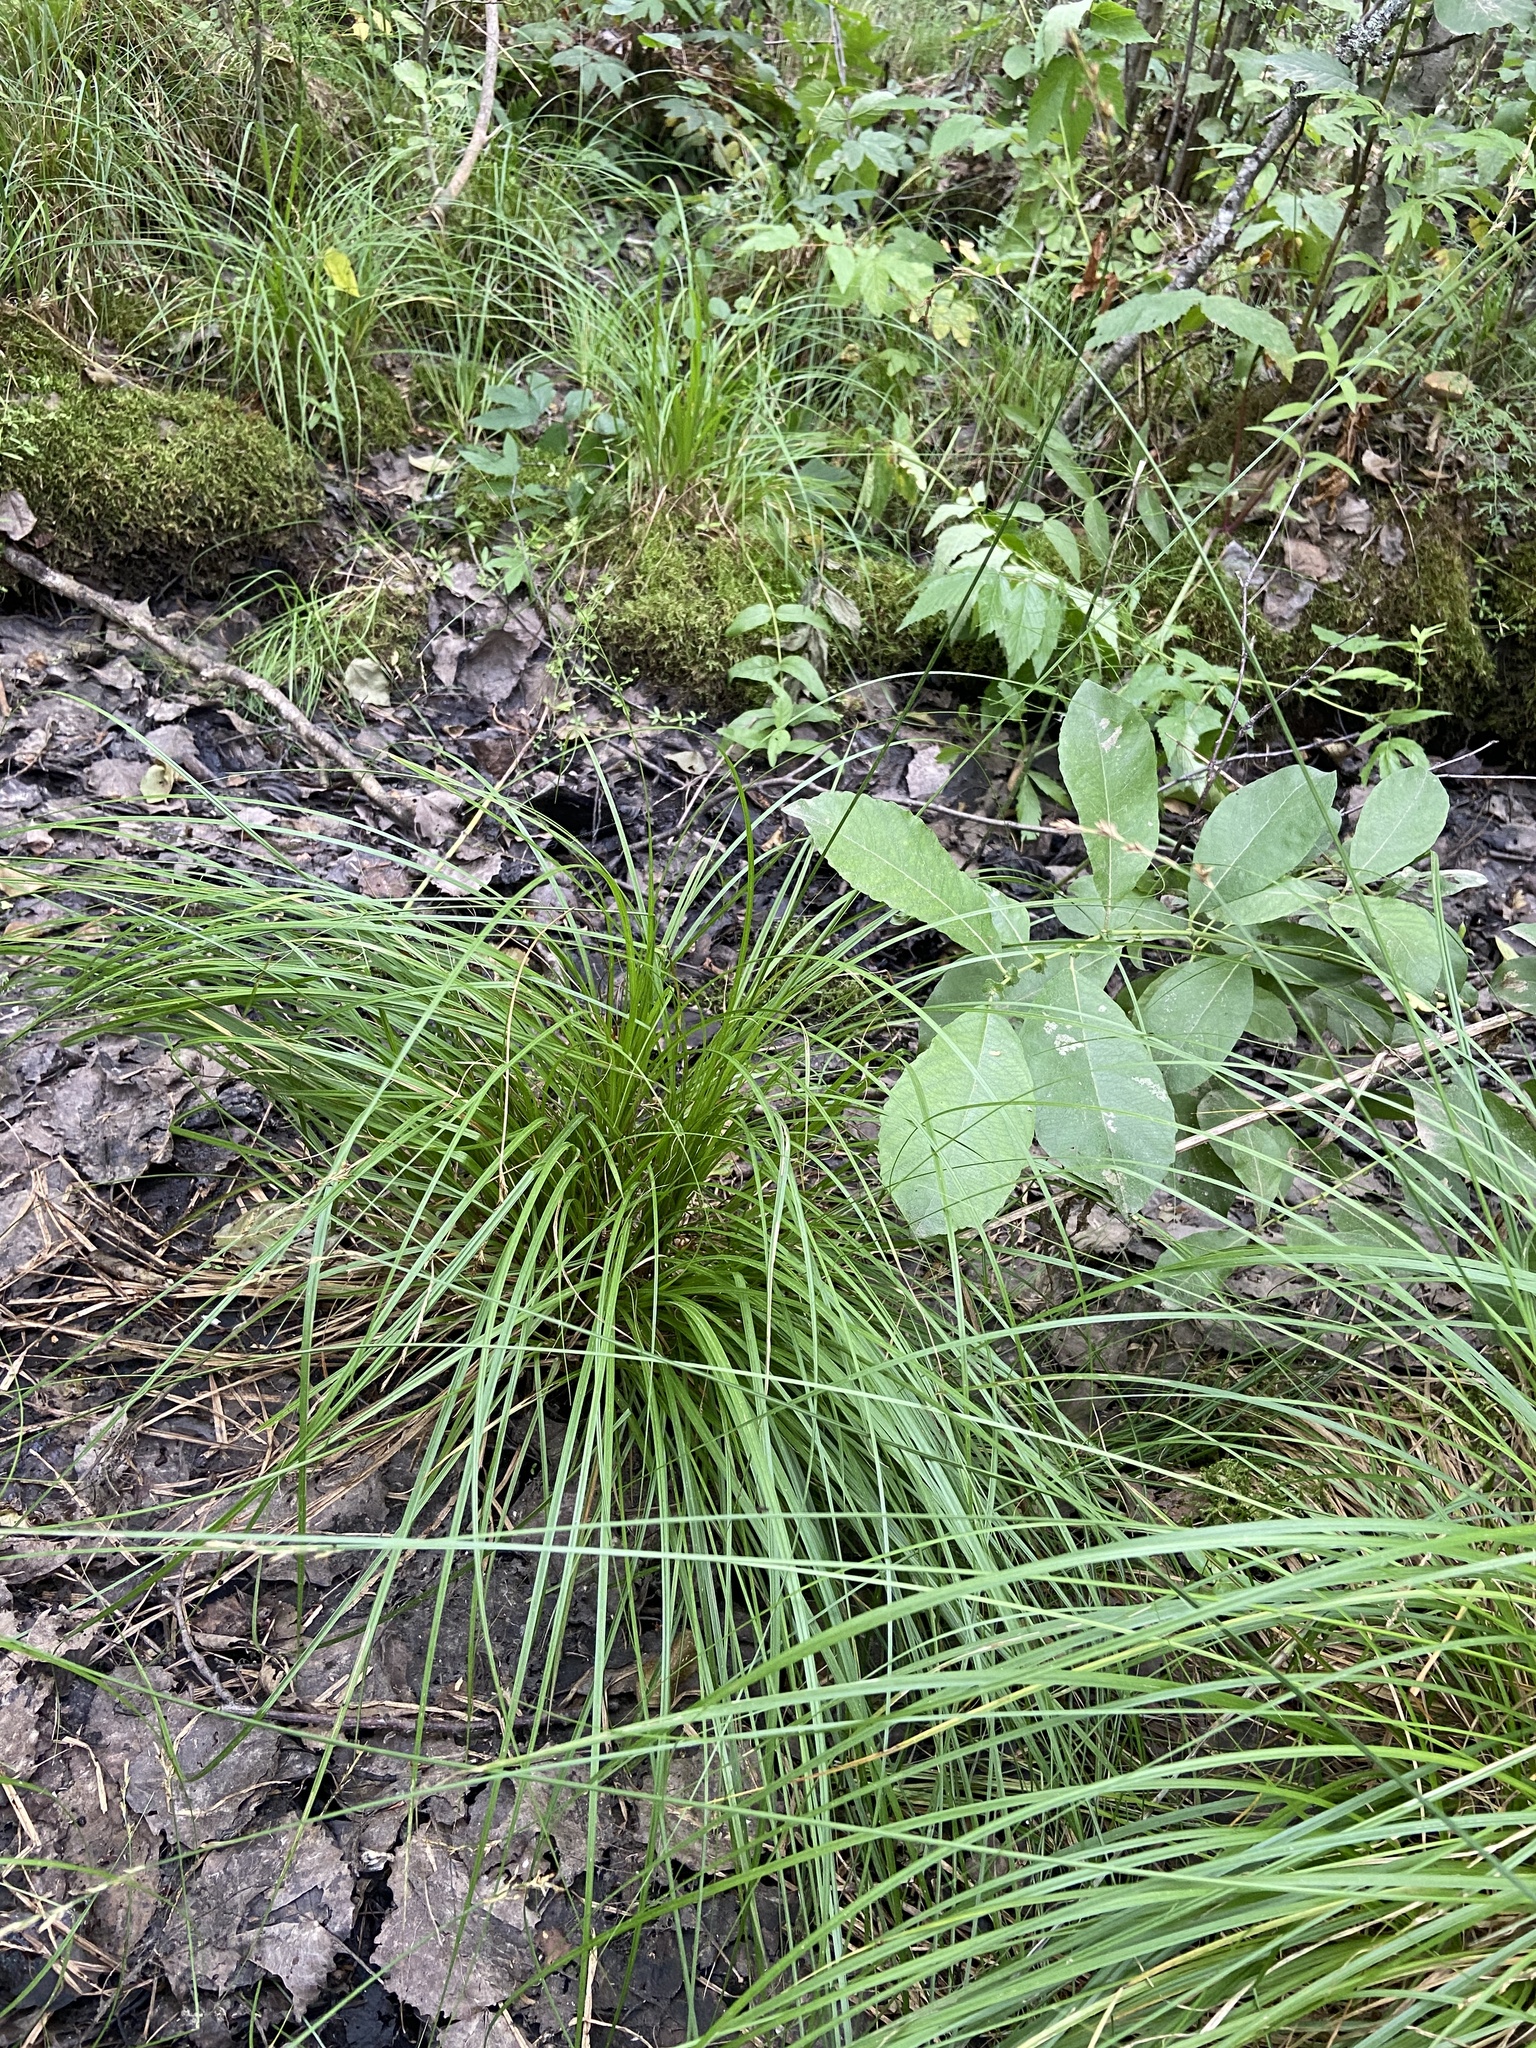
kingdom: Plantae
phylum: Tracheophyta
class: Liliopsida
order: Poales
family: Cyperaceae
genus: Carex
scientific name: Carex elongata
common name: Elongated sedge
